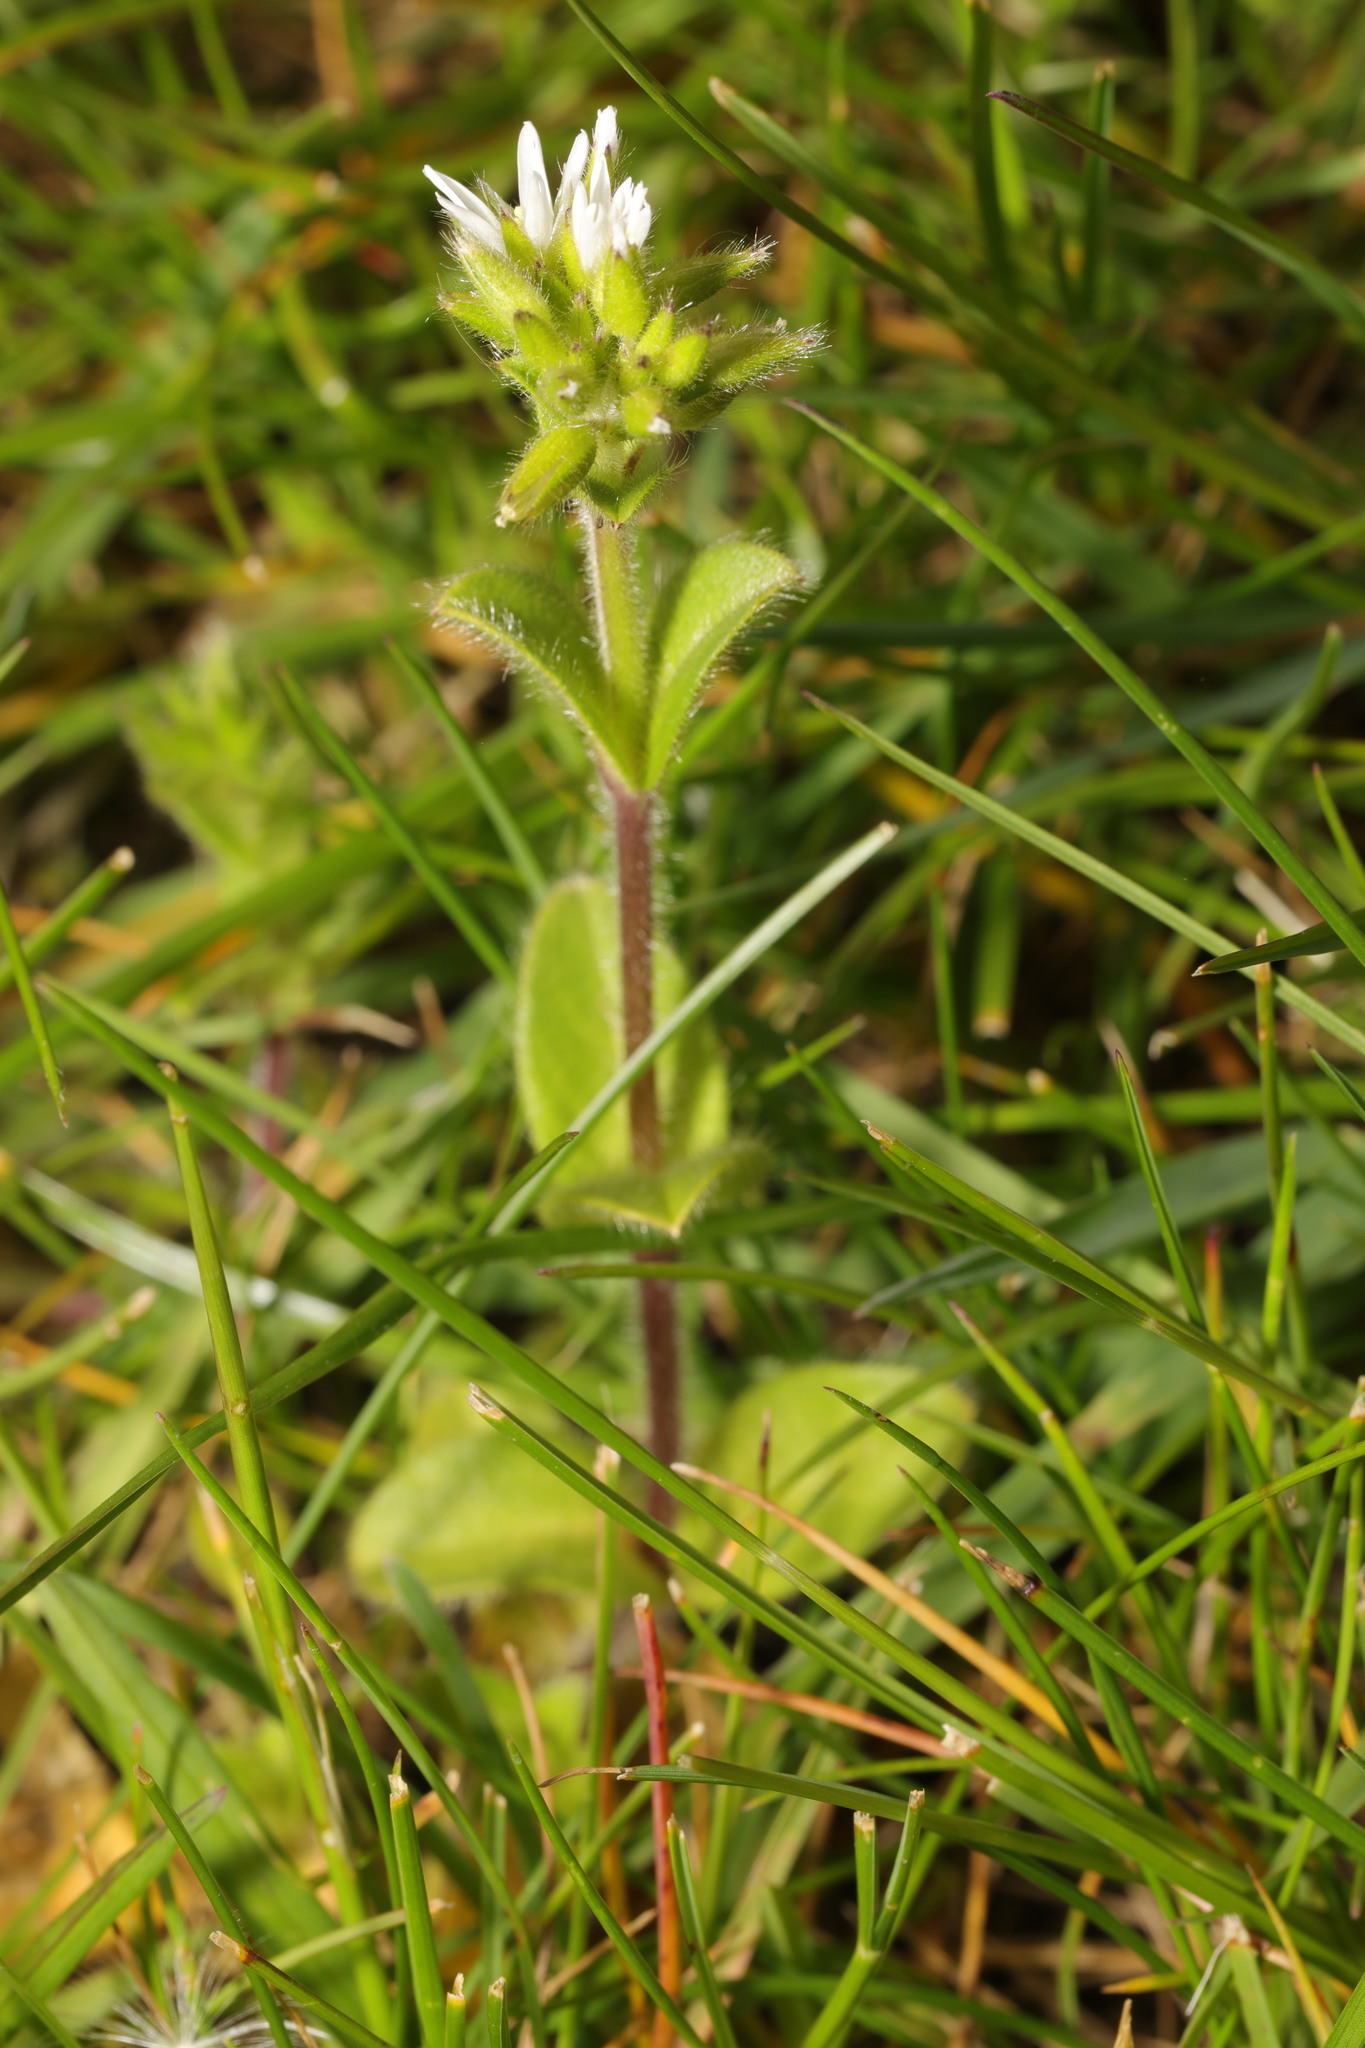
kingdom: Plantae
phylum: Tracheophyta
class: Magnoliopsida
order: Caryophyllales
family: Caryophyllaceae
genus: Cerastium
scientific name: Cerastium glomeratum
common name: Sticky chickweed
